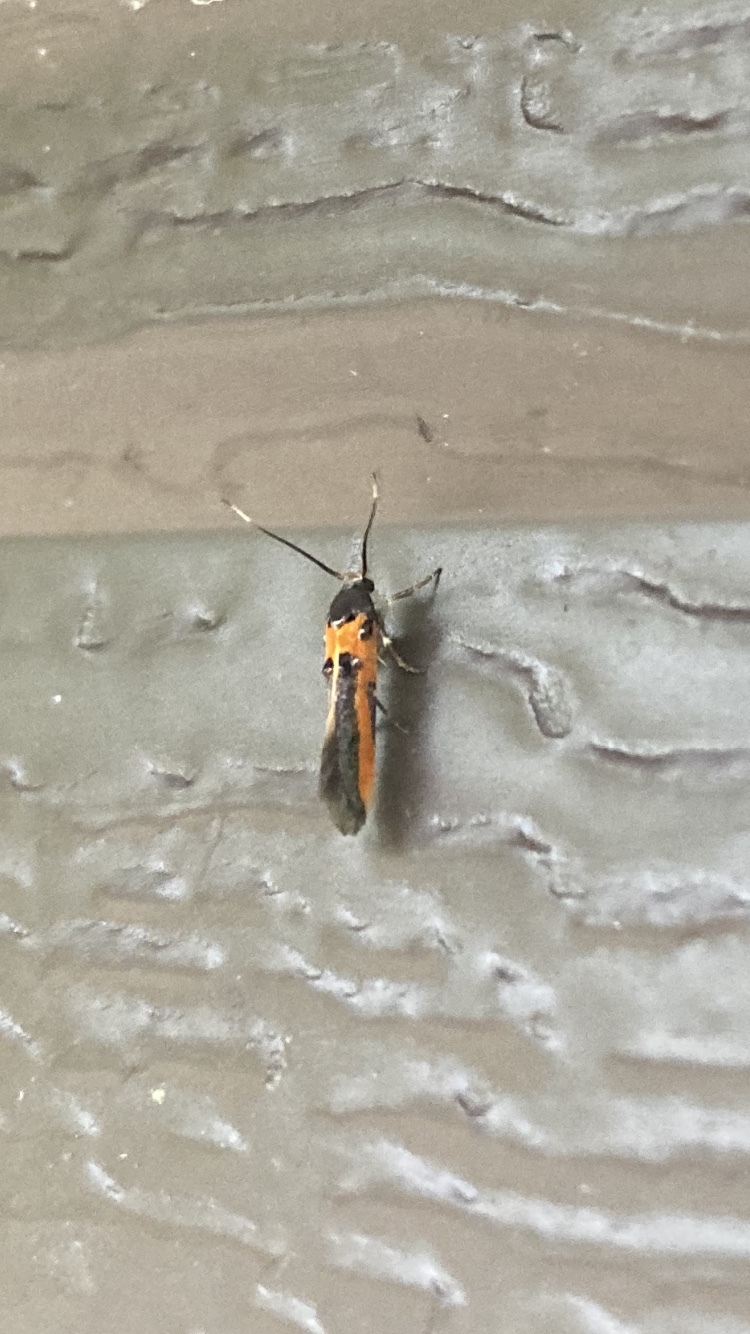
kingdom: Animalia
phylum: Arthropoda
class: Insecta
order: Lepidoptera
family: Cosmopterigidae
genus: Euclemensia
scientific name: Euclemensia bassettella
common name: Kermes scale moth
